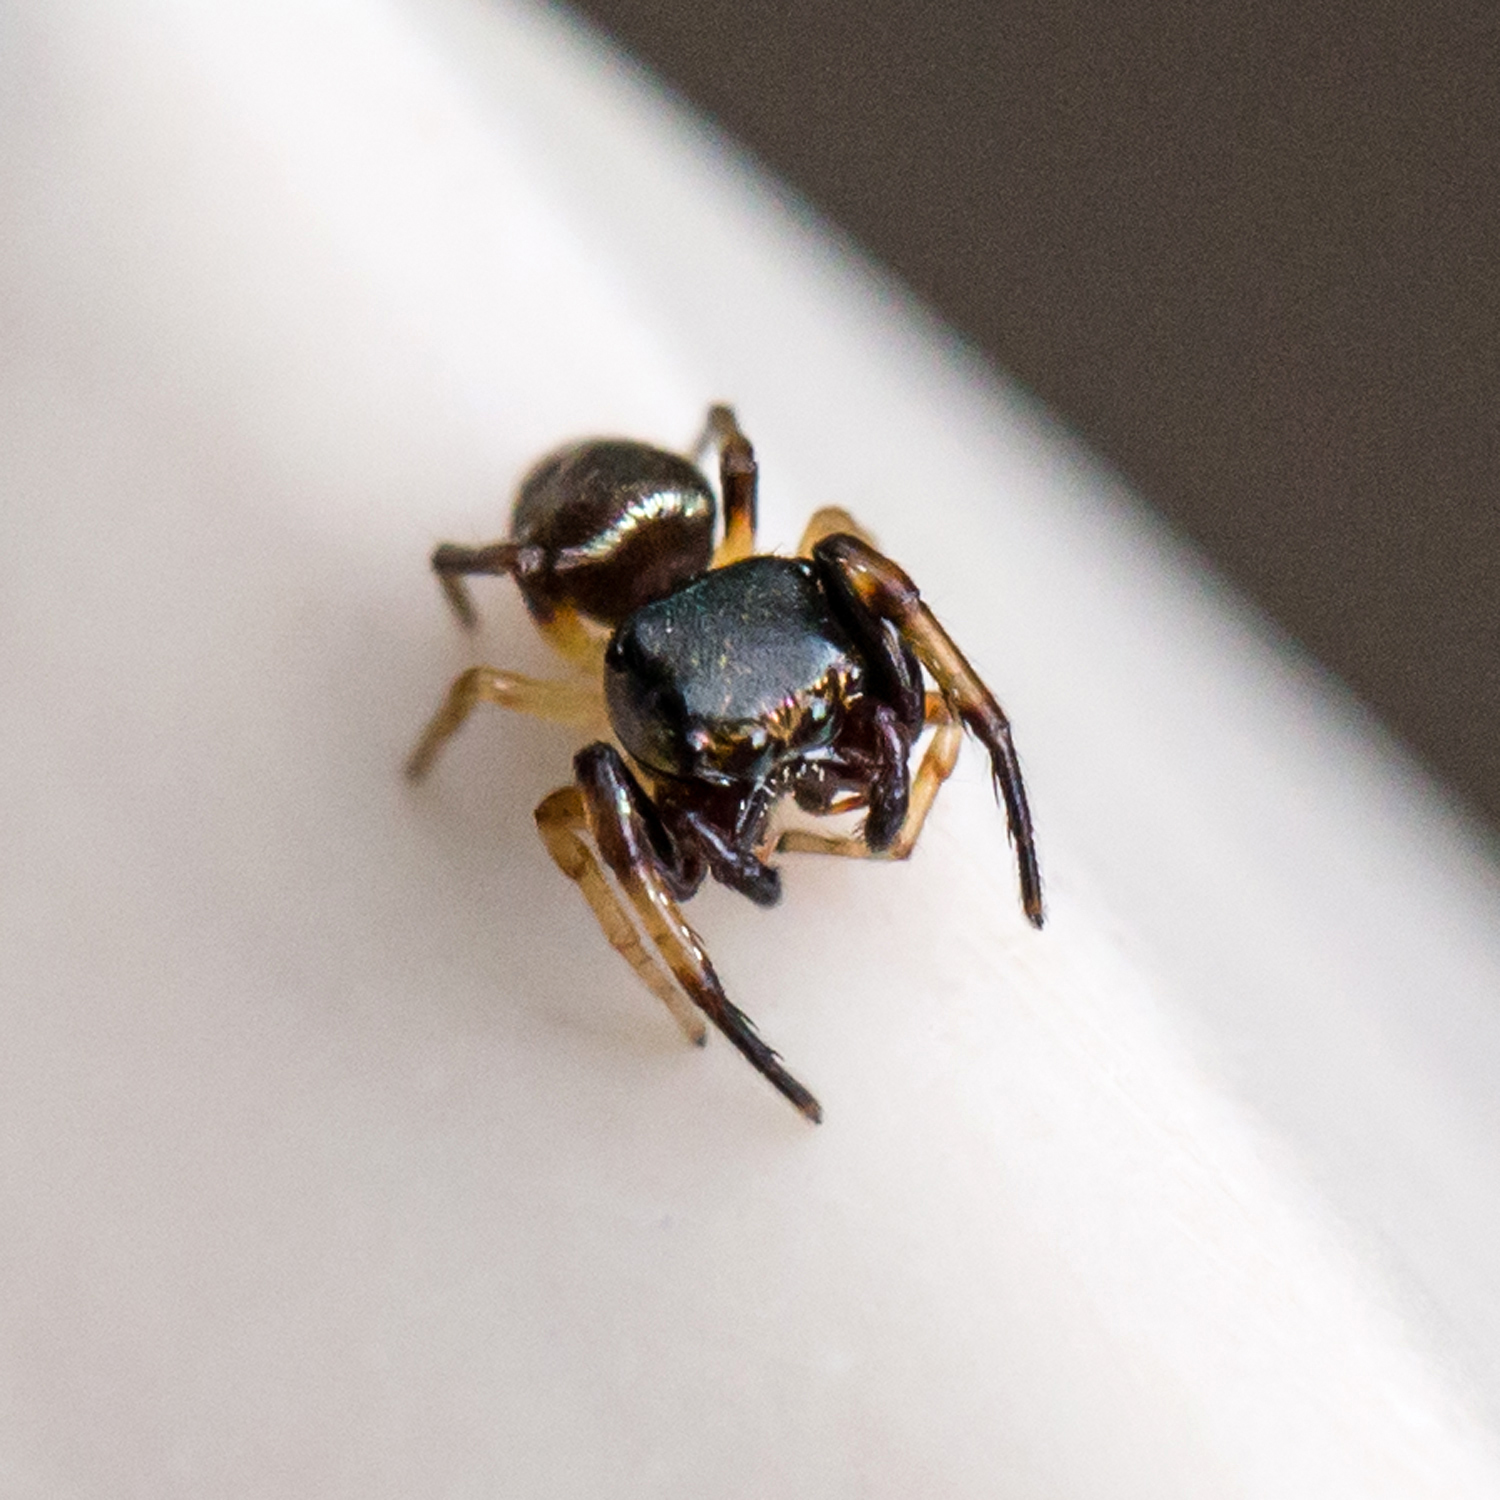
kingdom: Animalia
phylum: Arthropoda
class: Arachnida
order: Araneae
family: Salticidae
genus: Zygoballus
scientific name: Zygoballus rufipes
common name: Jumping spiders
